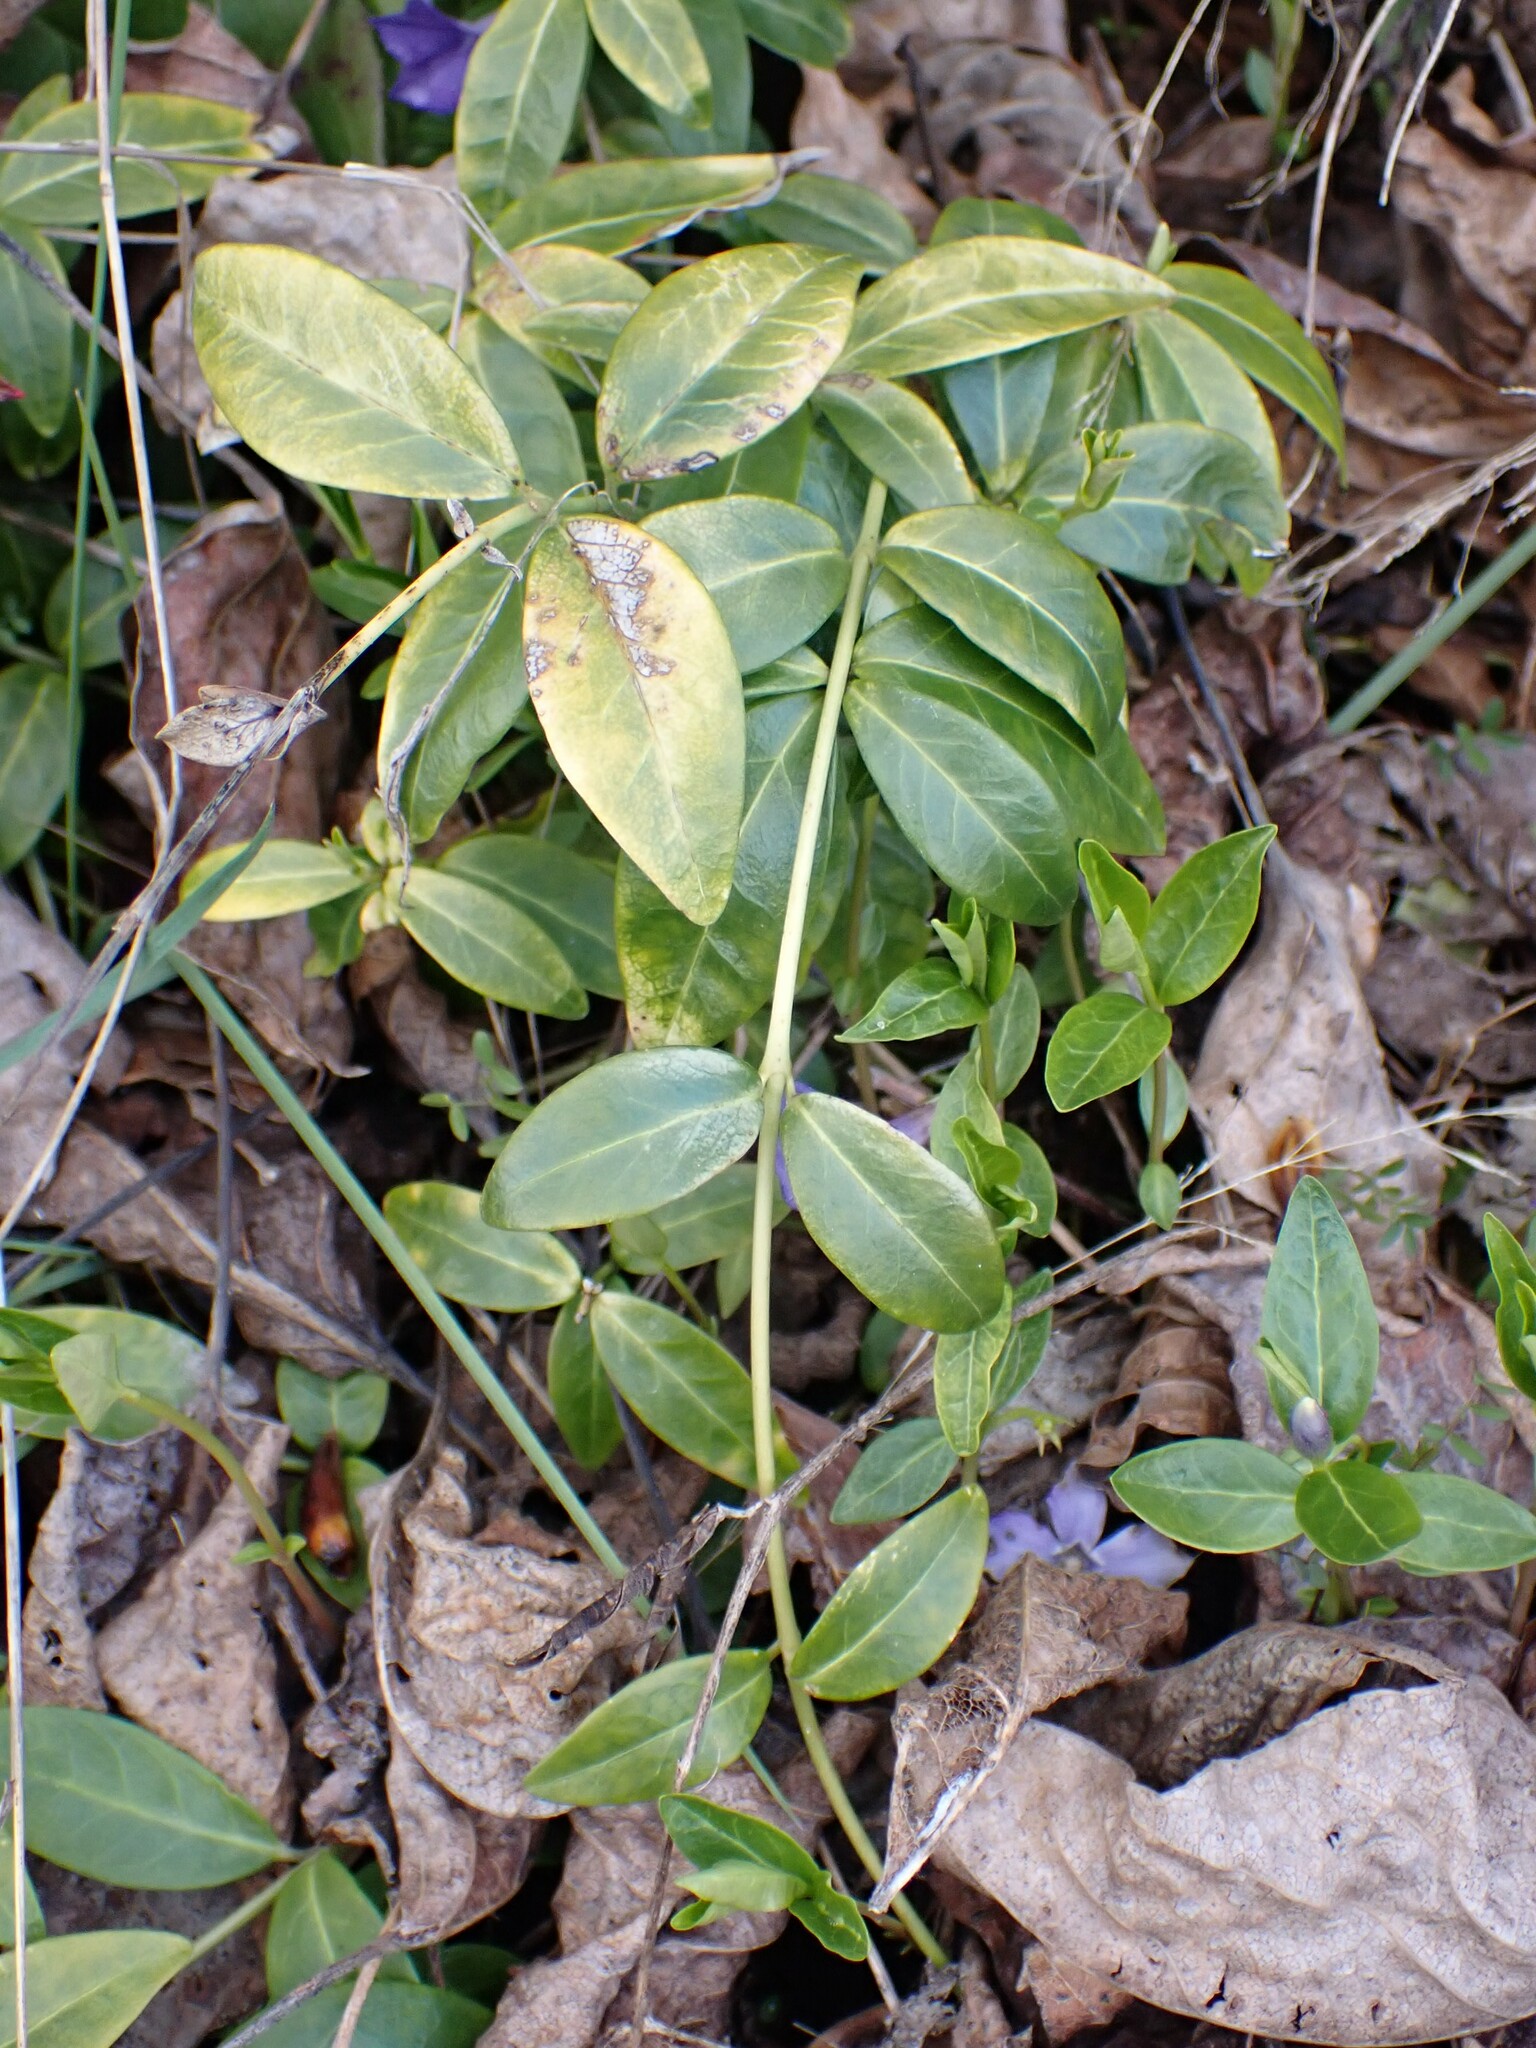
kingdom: Plantae
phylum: Tracheophyta
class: Magnoliopsida
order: Gentianales
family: Apocynaceae
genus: Vinca
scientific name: Vinca minor
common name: Lesser periwinkle
